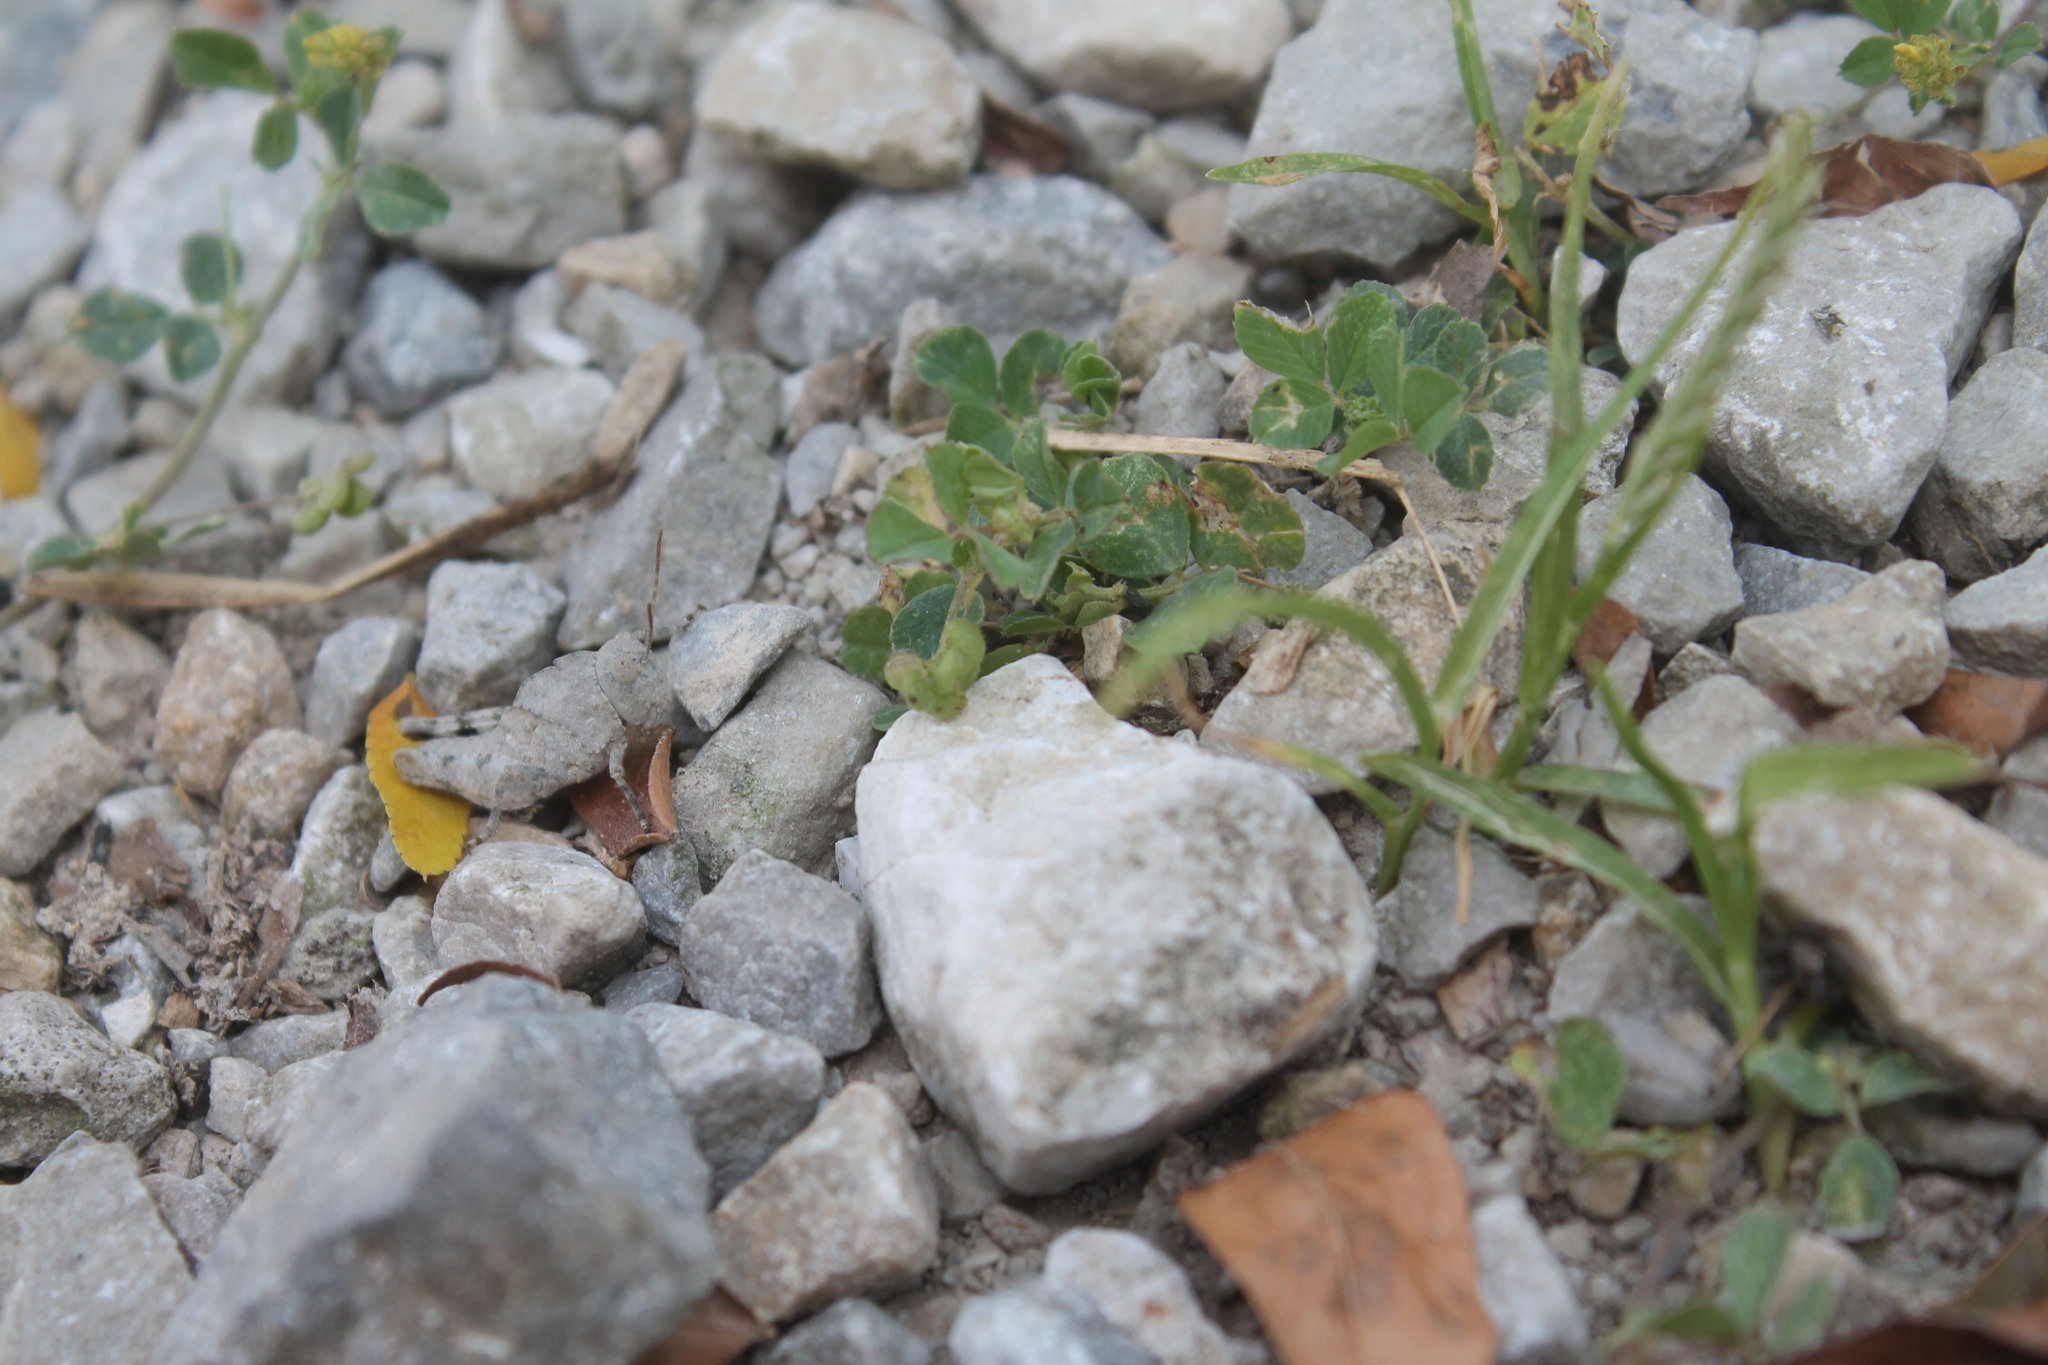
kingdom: Animalia
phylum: Arthropoda
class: Insecta
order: Orthoptera
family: Acrididae
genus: Dissosteira
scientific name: Dissosteira carolina
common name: Carolina grasshopper
